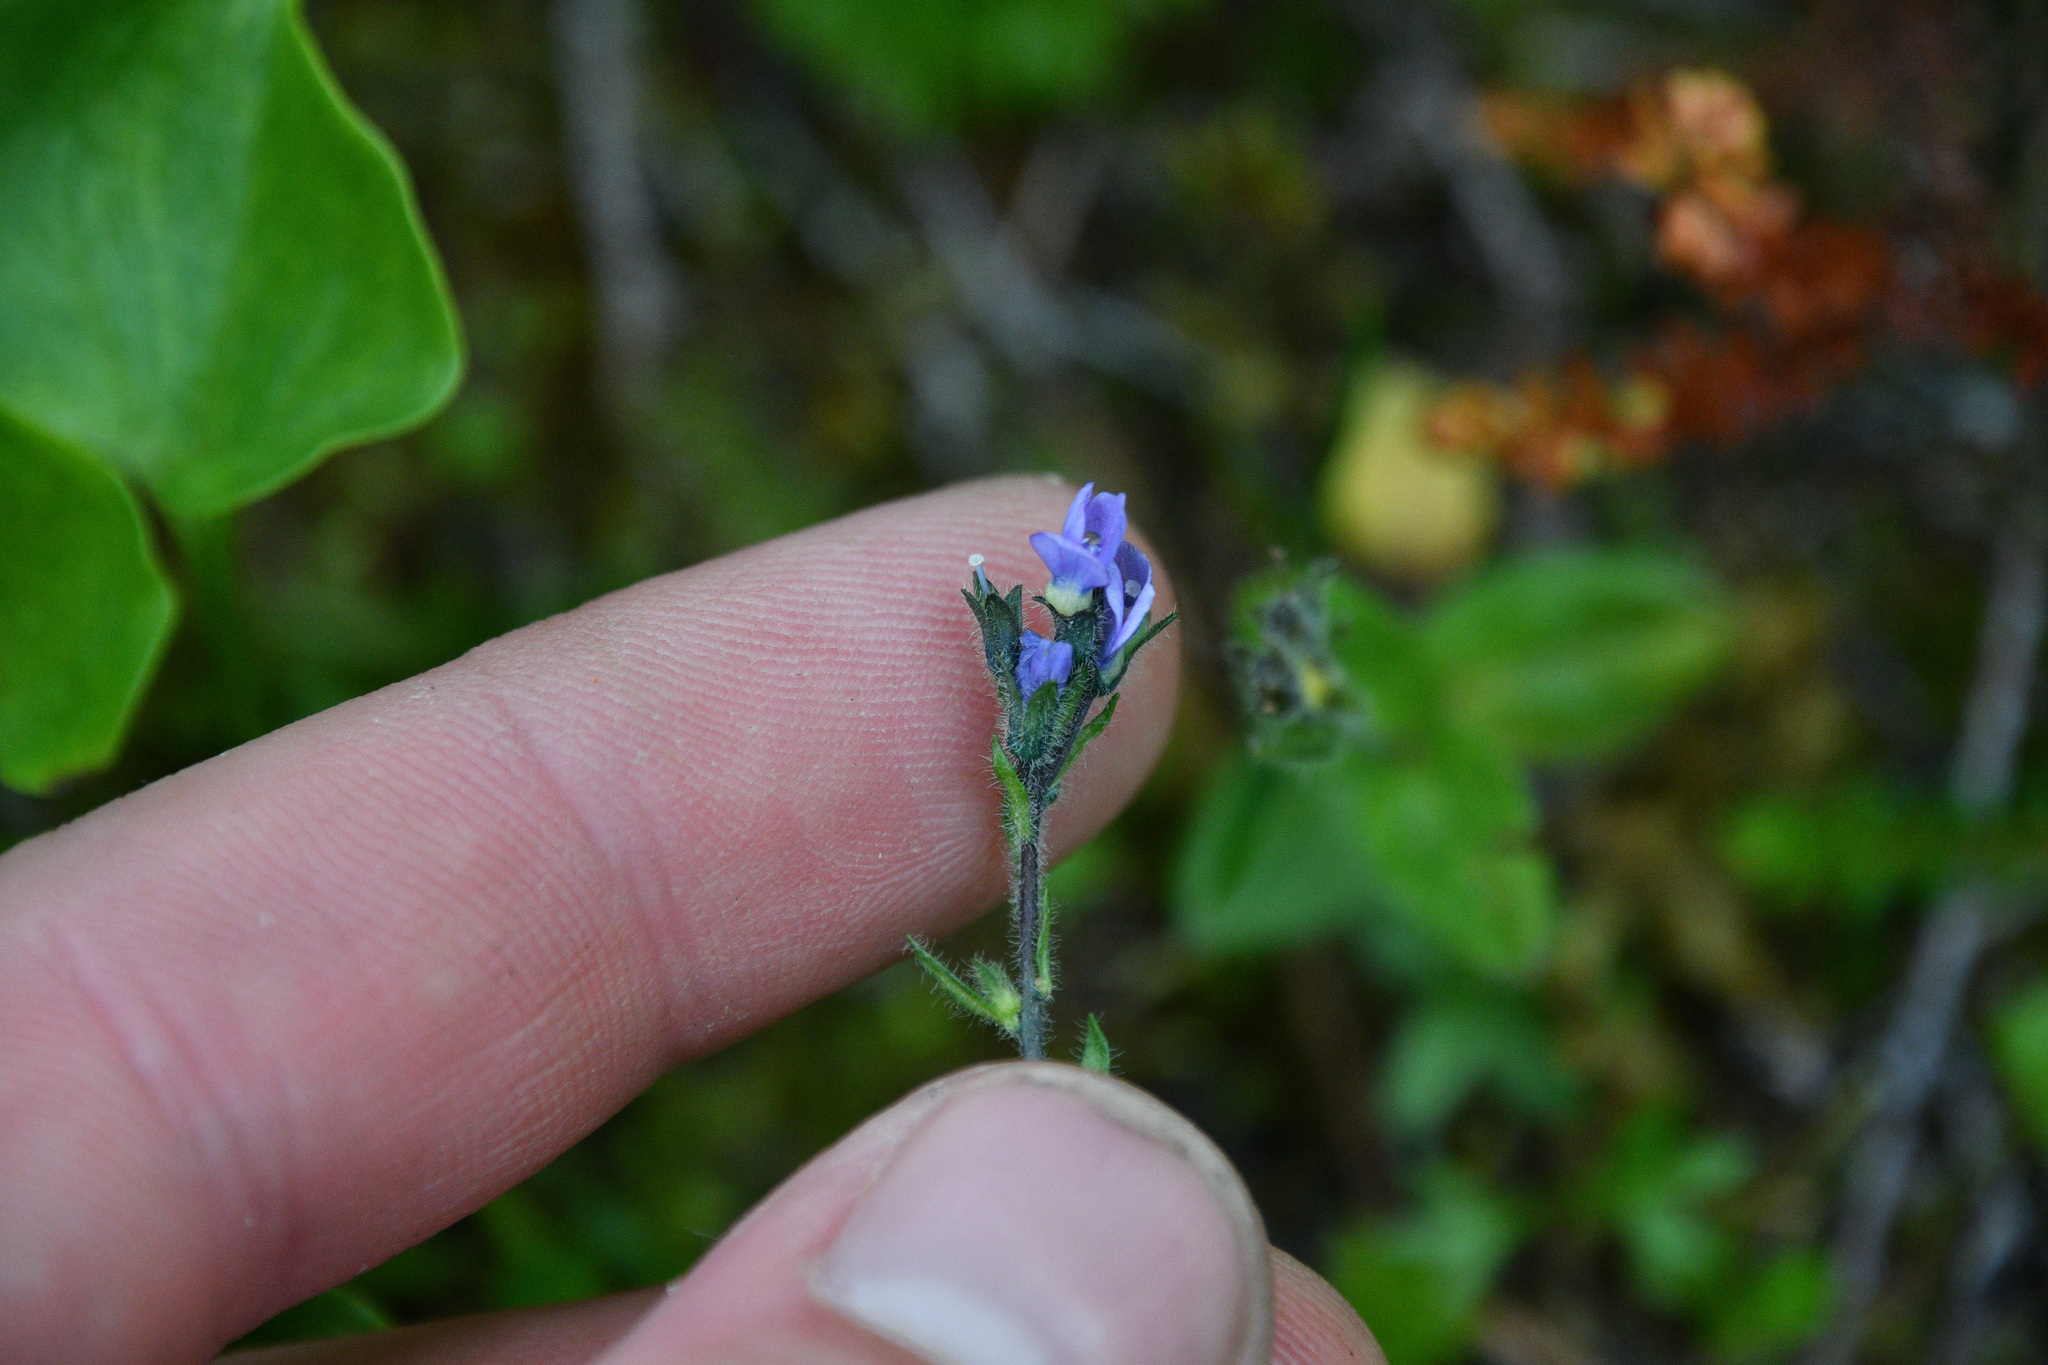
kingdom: Plantae
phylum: Tracheophyta
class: Magnoliopsida
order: Lamiales
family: Plantaginaceae
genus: Veronica
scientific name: Veronica wormskjoldii
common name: American alpine speedwell
